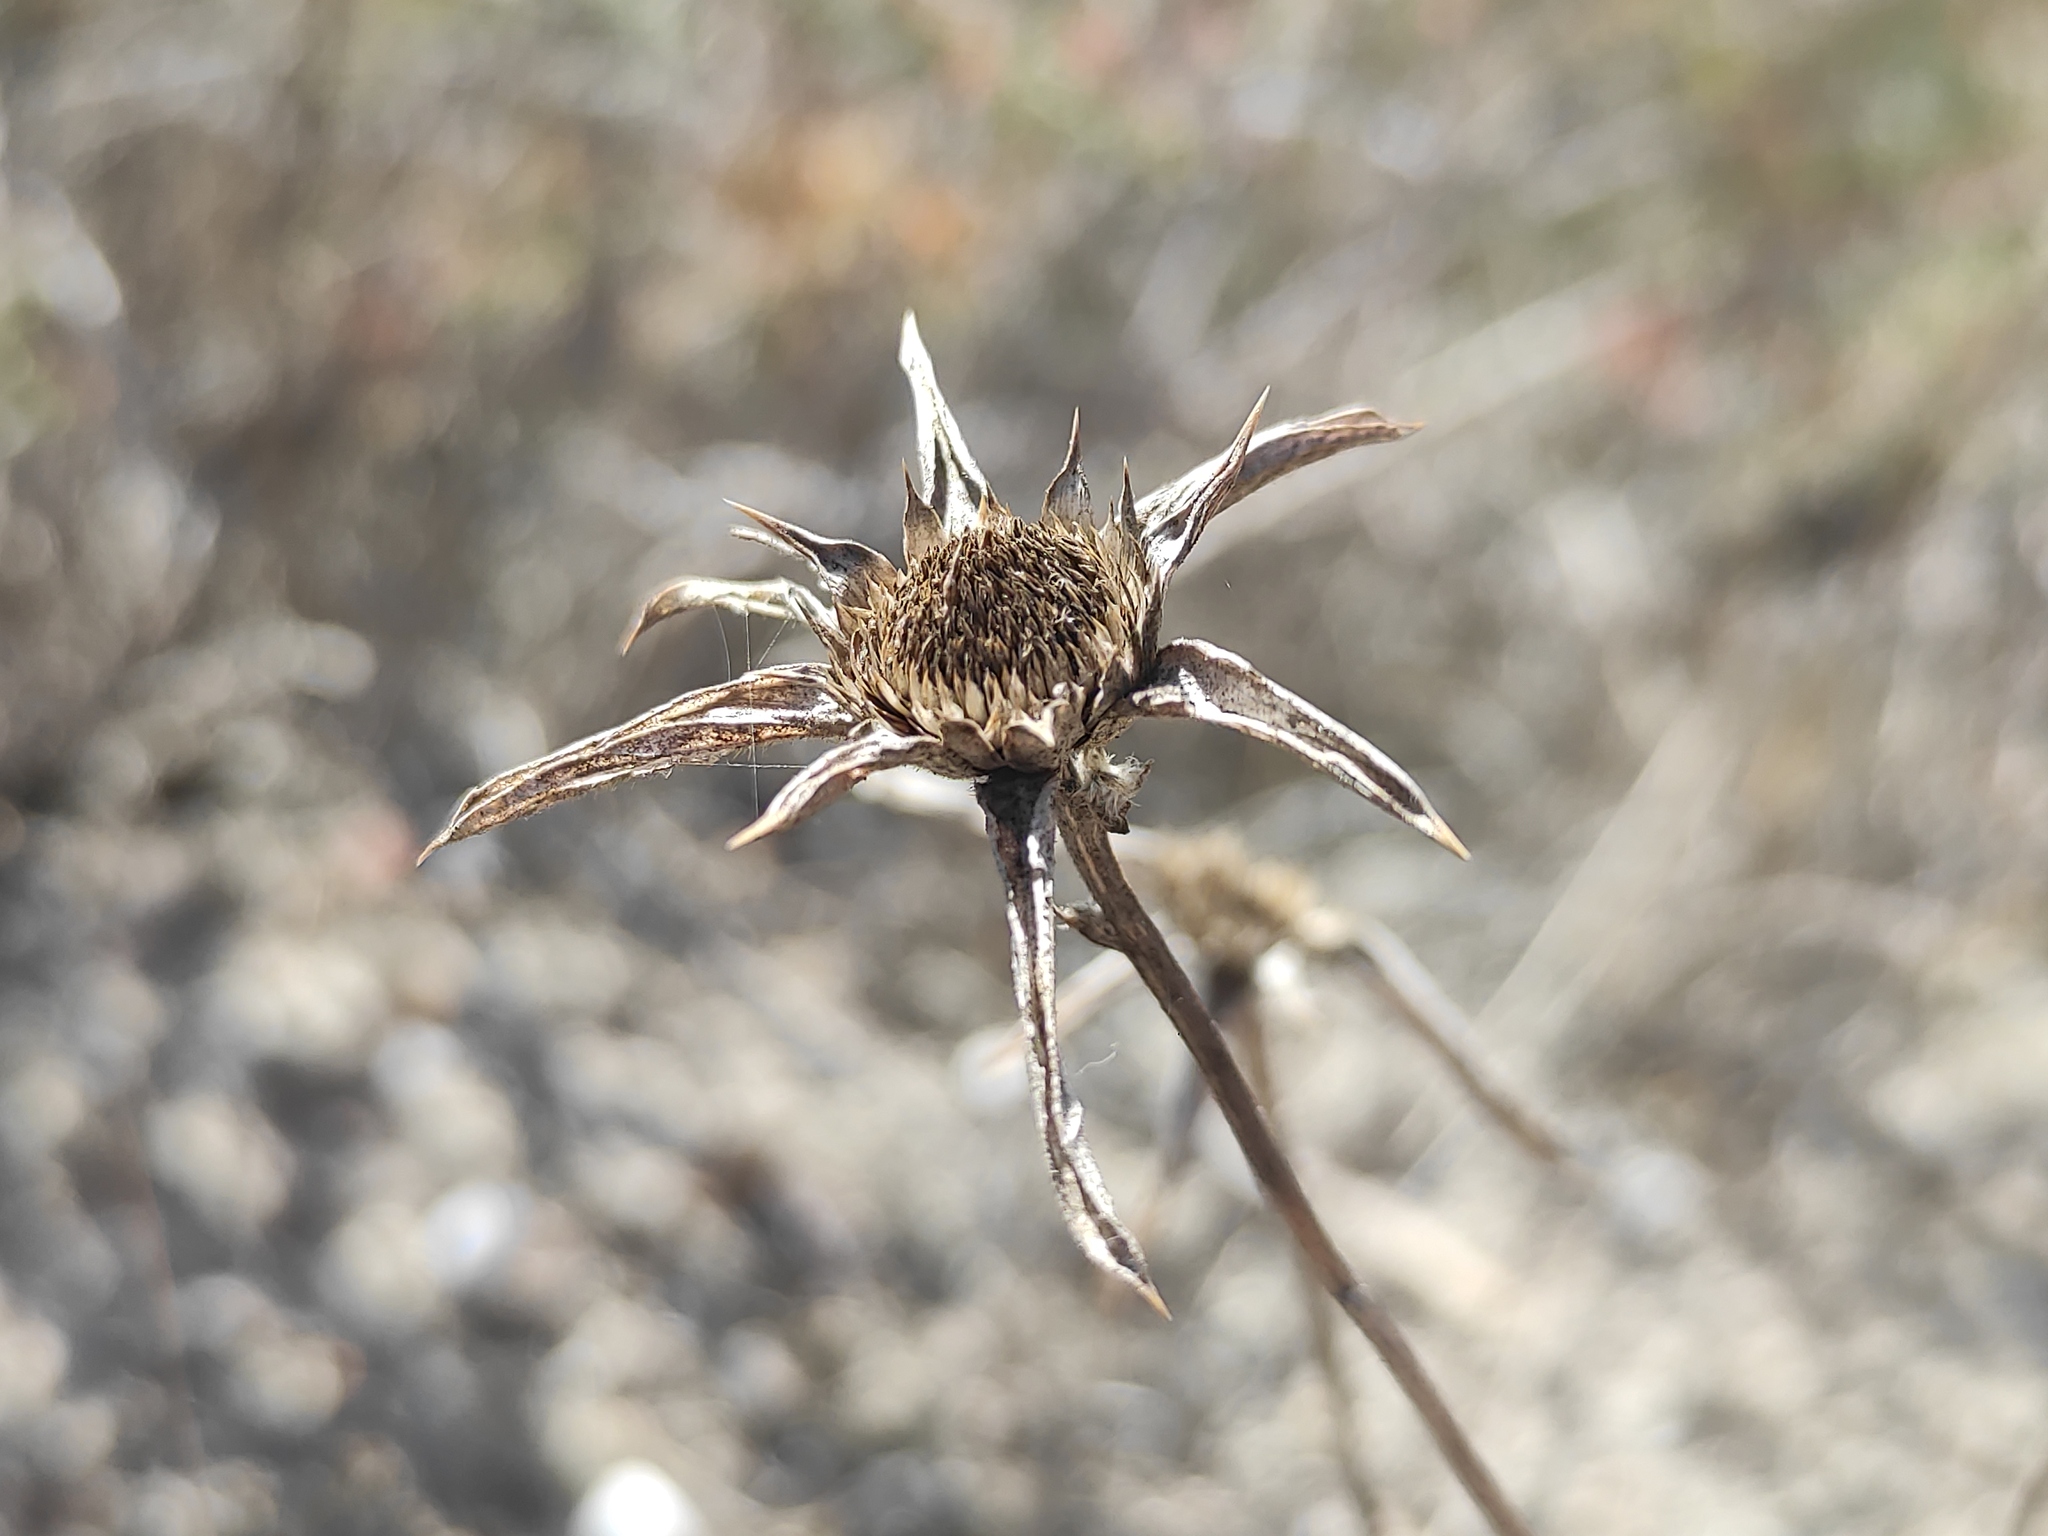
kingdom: Plantae
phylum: Tracheophyta
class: Magnoliopsida
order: Asterales
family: Asteraceae
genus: Pallenis
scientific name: Pallenis spinosa
